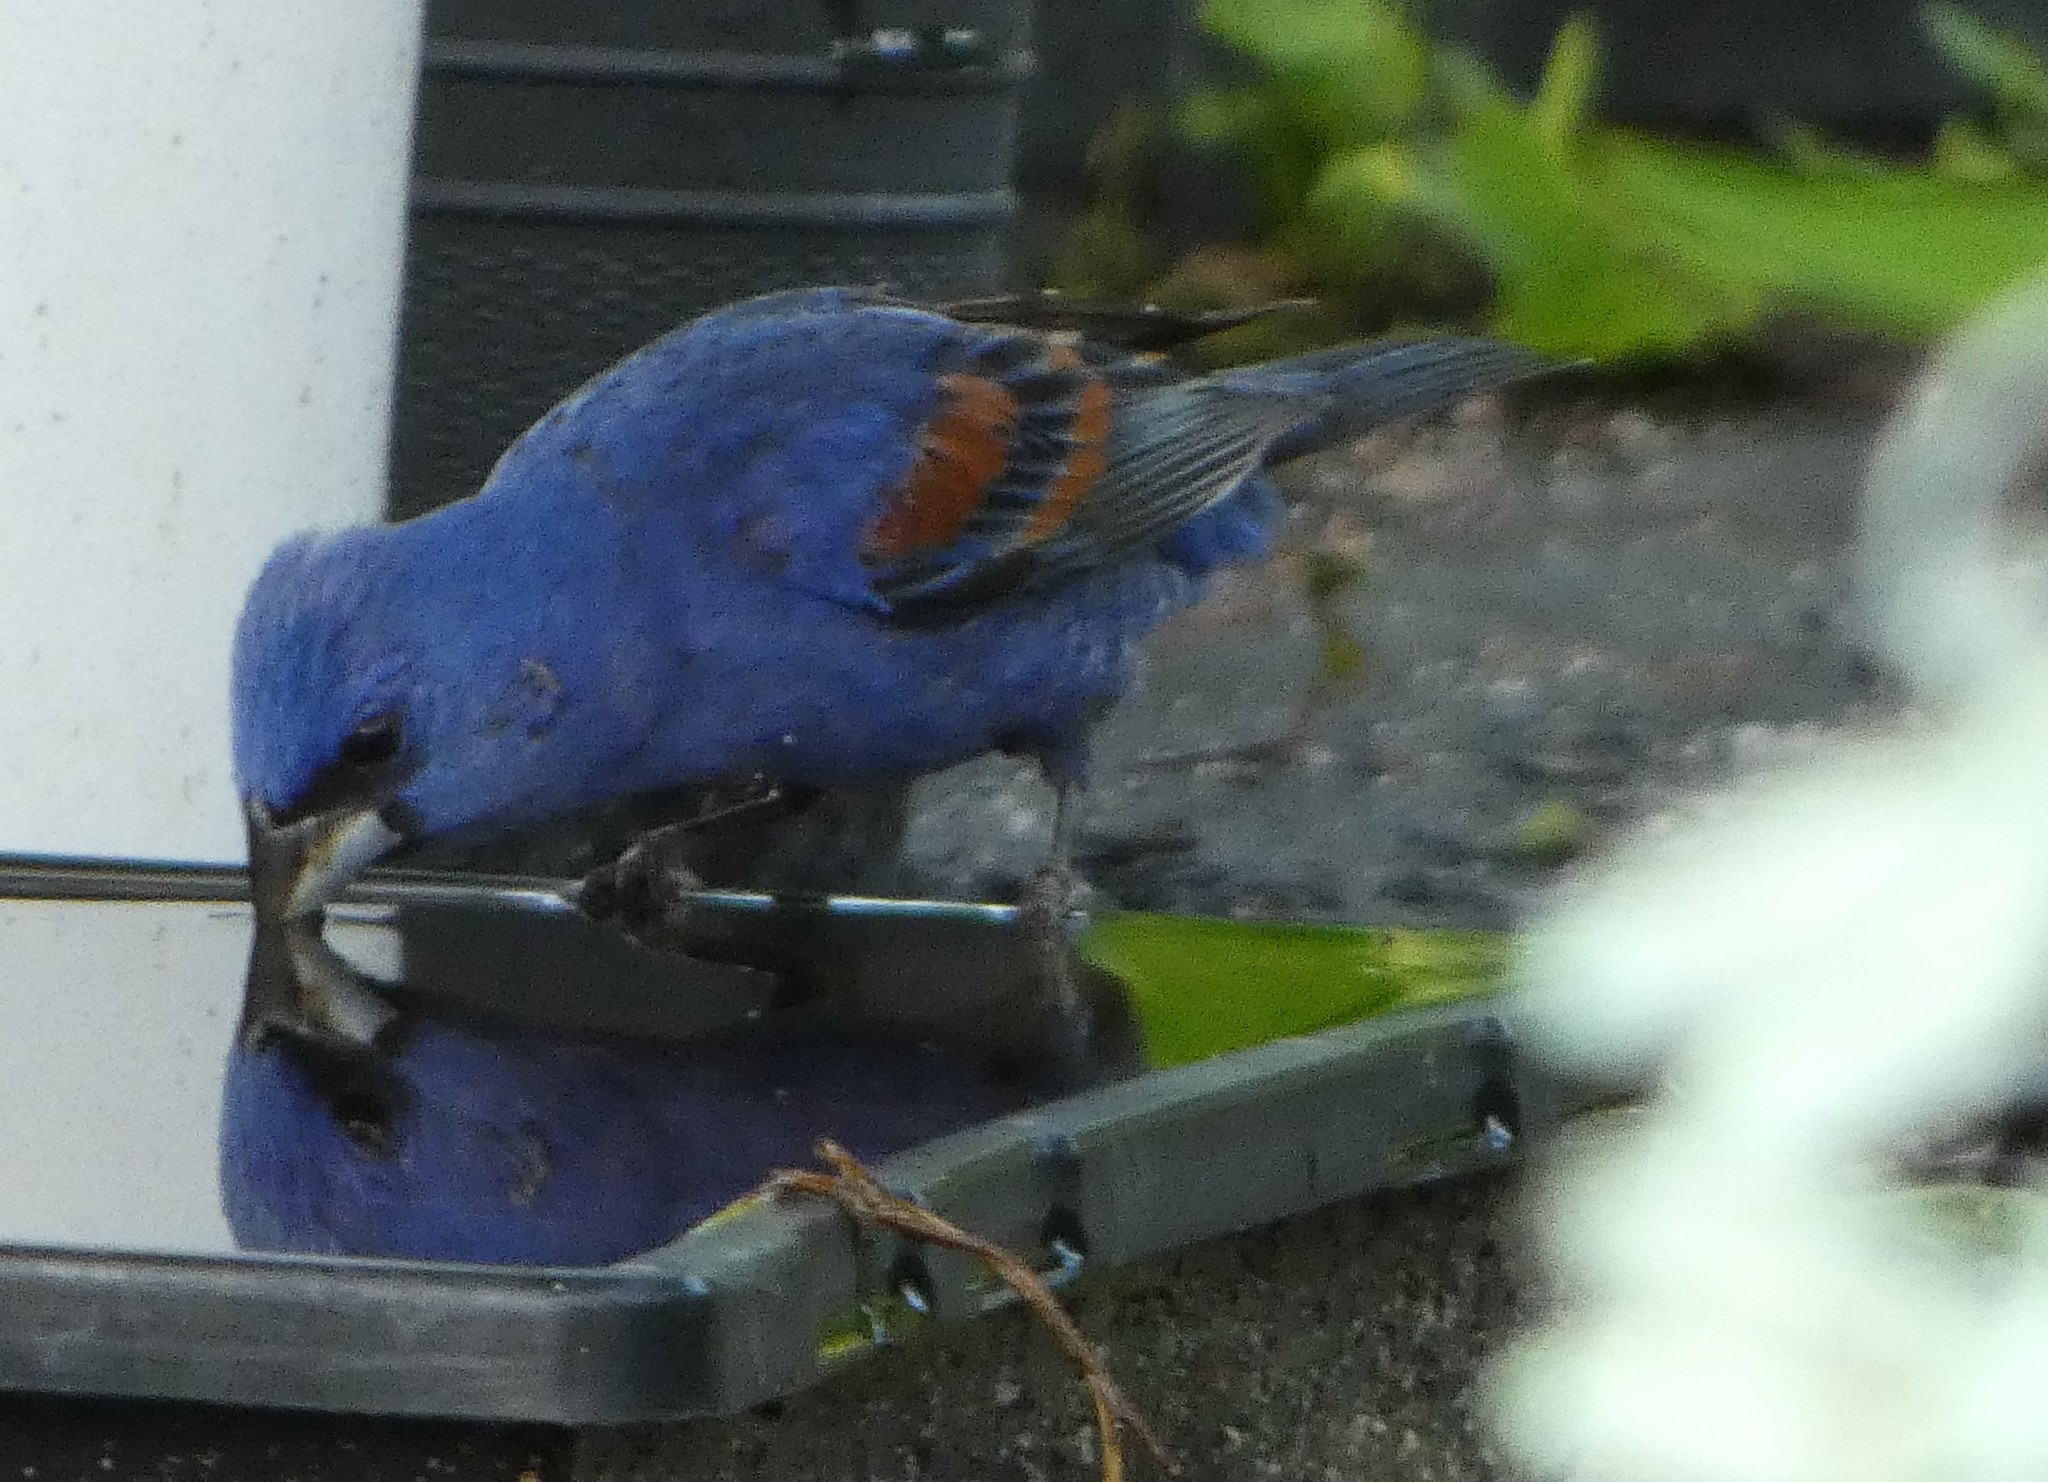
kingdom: Animalia
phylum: Chordata
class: Aves
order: Passeriformes
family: Cardinalidae
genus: Passerina
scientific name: Passerina caerulea
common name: Blue grosbeak
